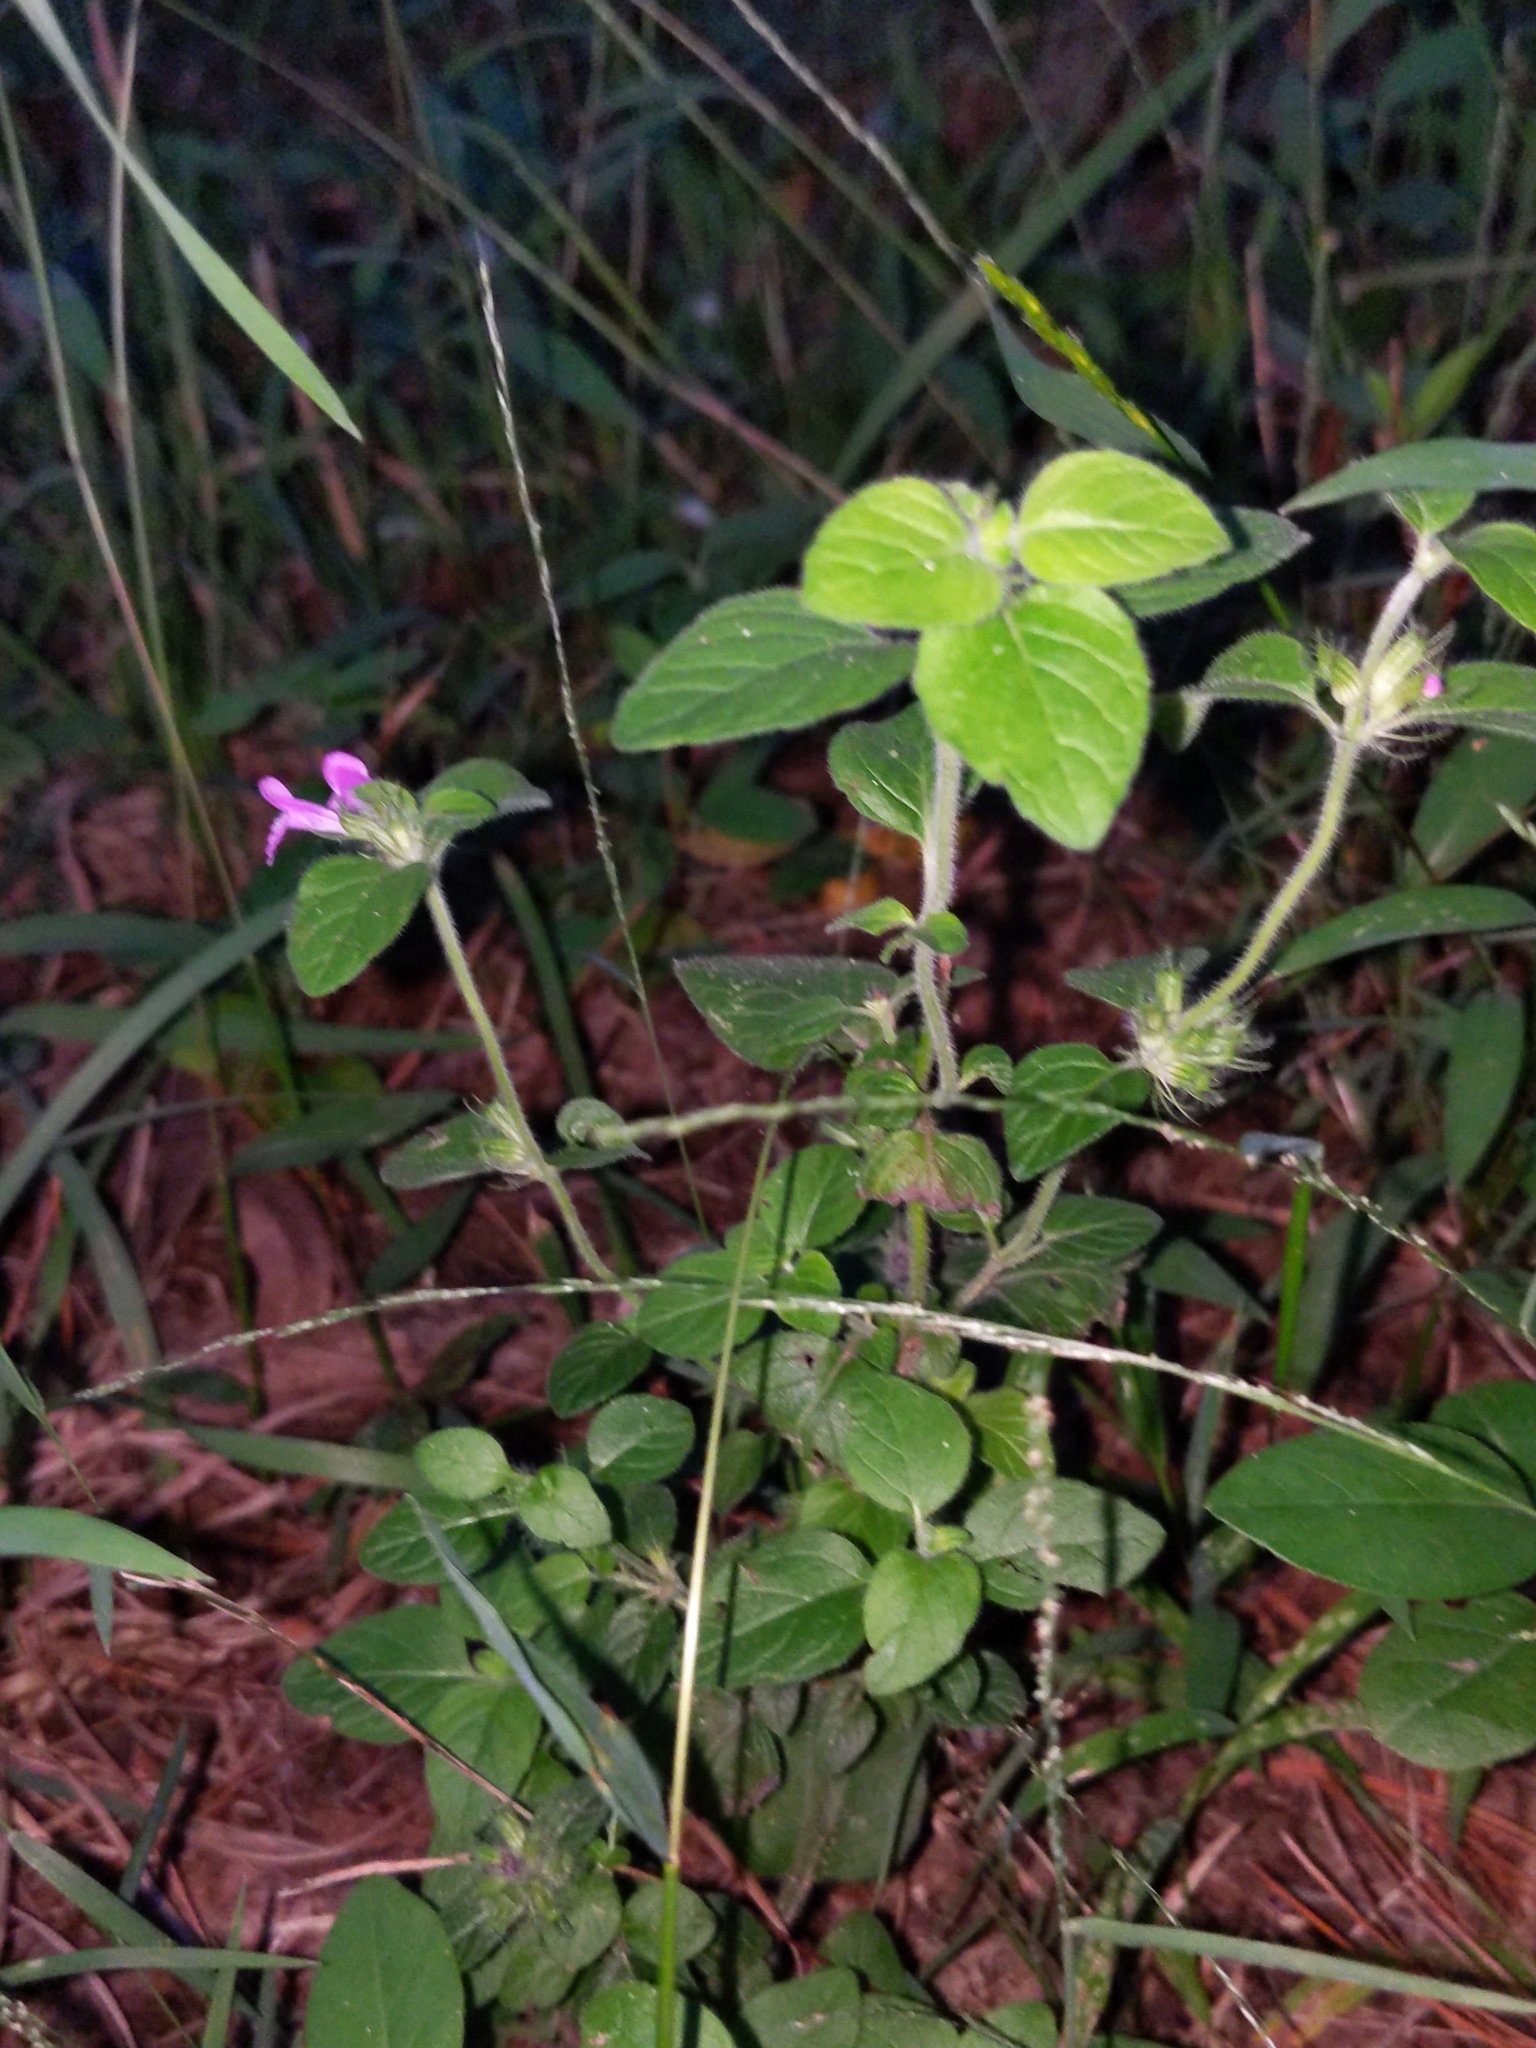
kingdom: Plantae
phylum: Tracheophyta
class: Magnoliopsida
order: Lamiales
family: Lamiaceae
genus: Clinopodium
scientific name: Clinopodium vulgare
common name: Wild basil
